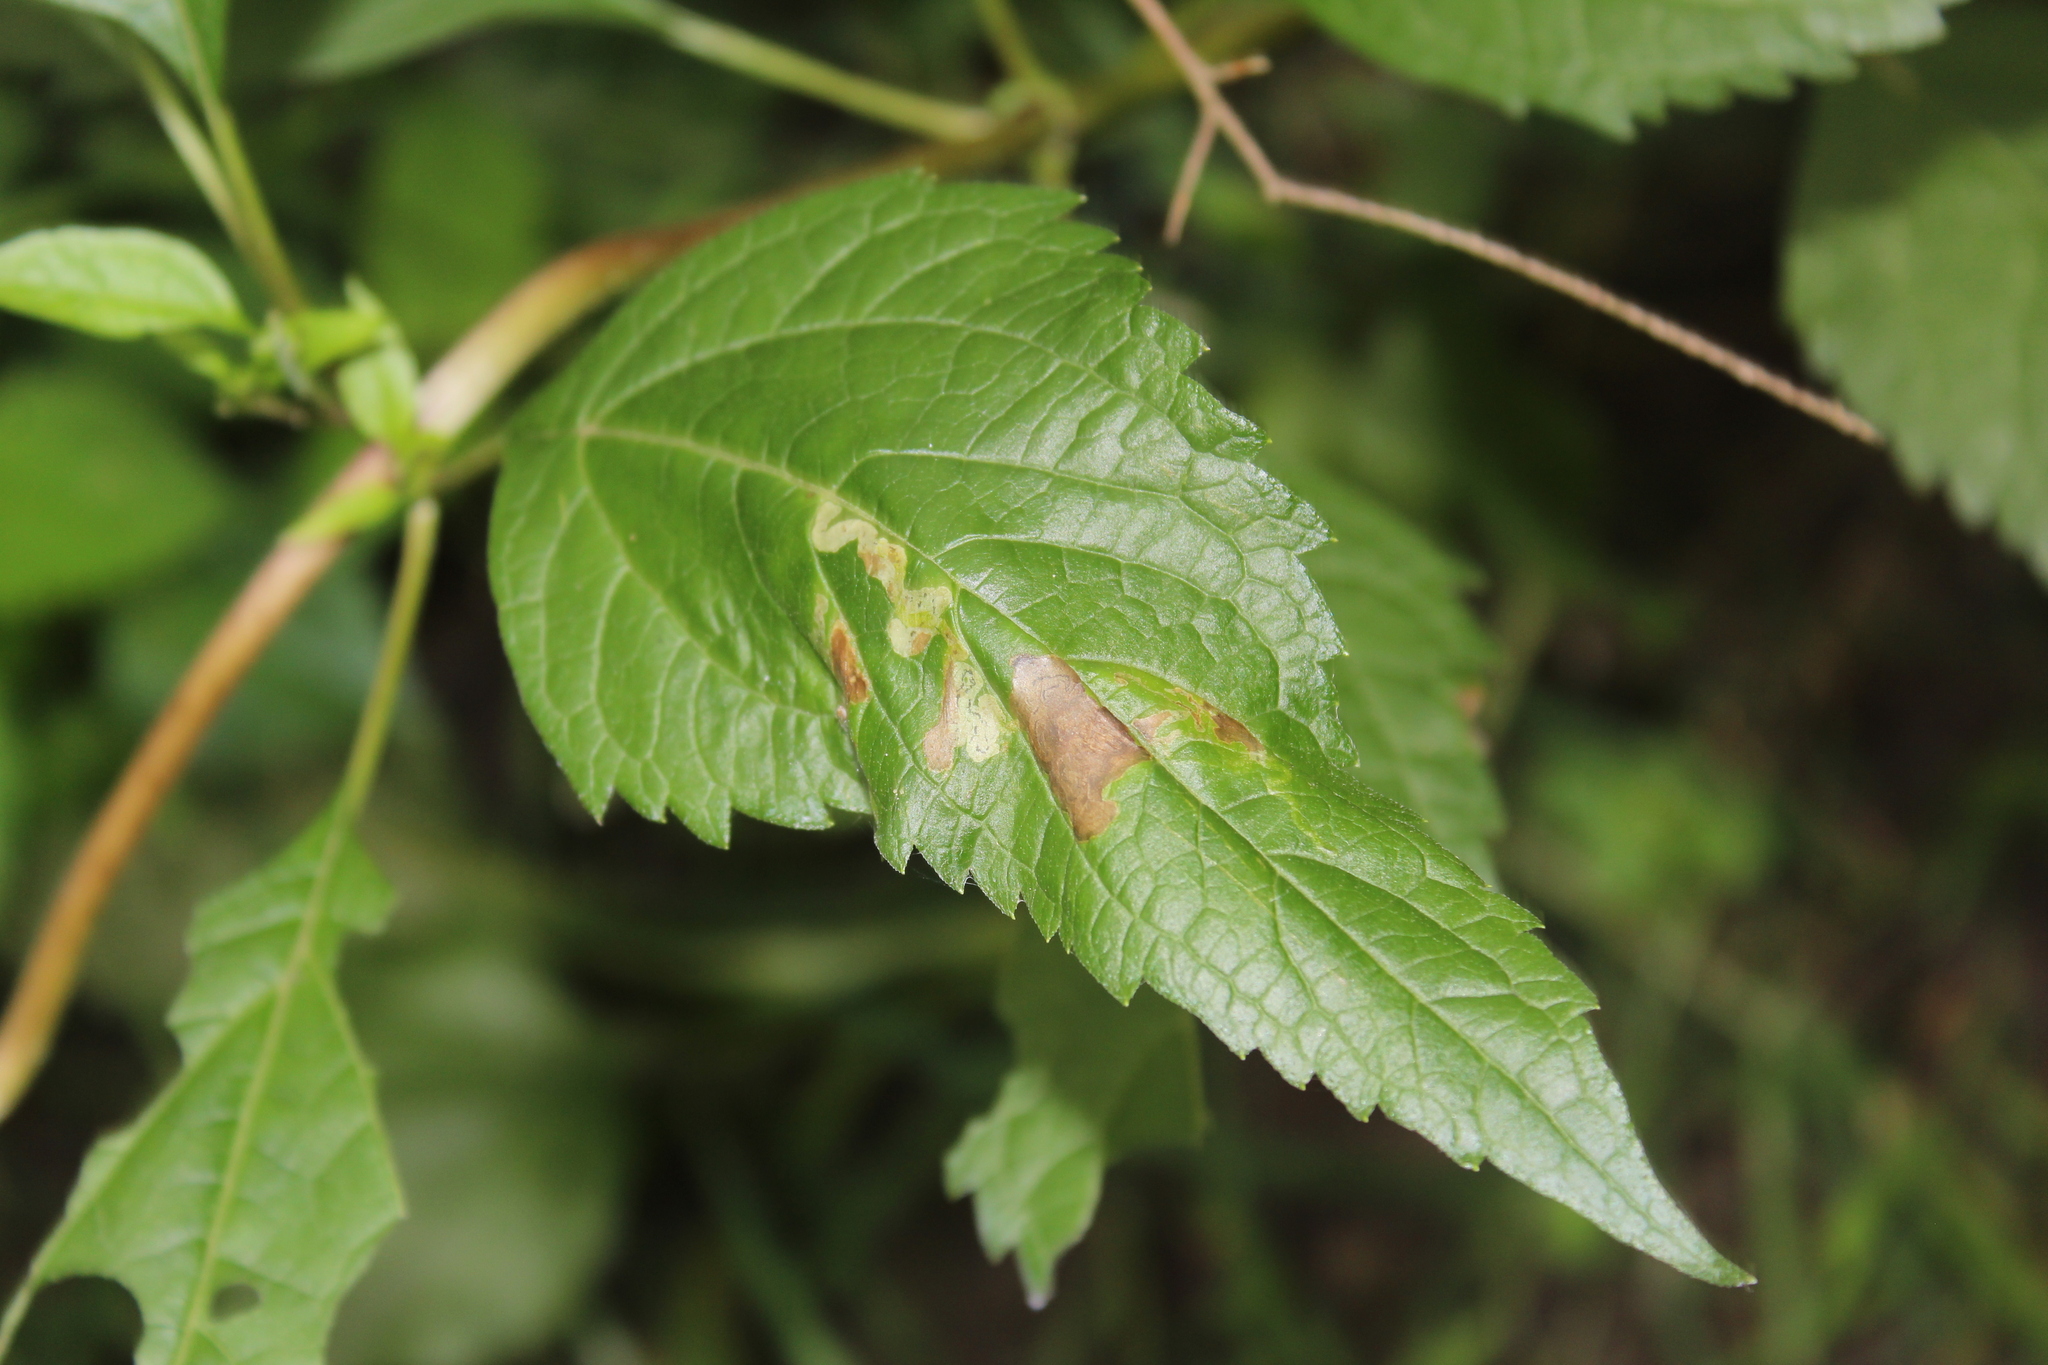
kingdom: Animalia
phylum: Arthropoda
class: Insecta
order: Diptera
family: Agromyzidae
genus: Liriomyza
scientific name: Liriomyza cracentis
